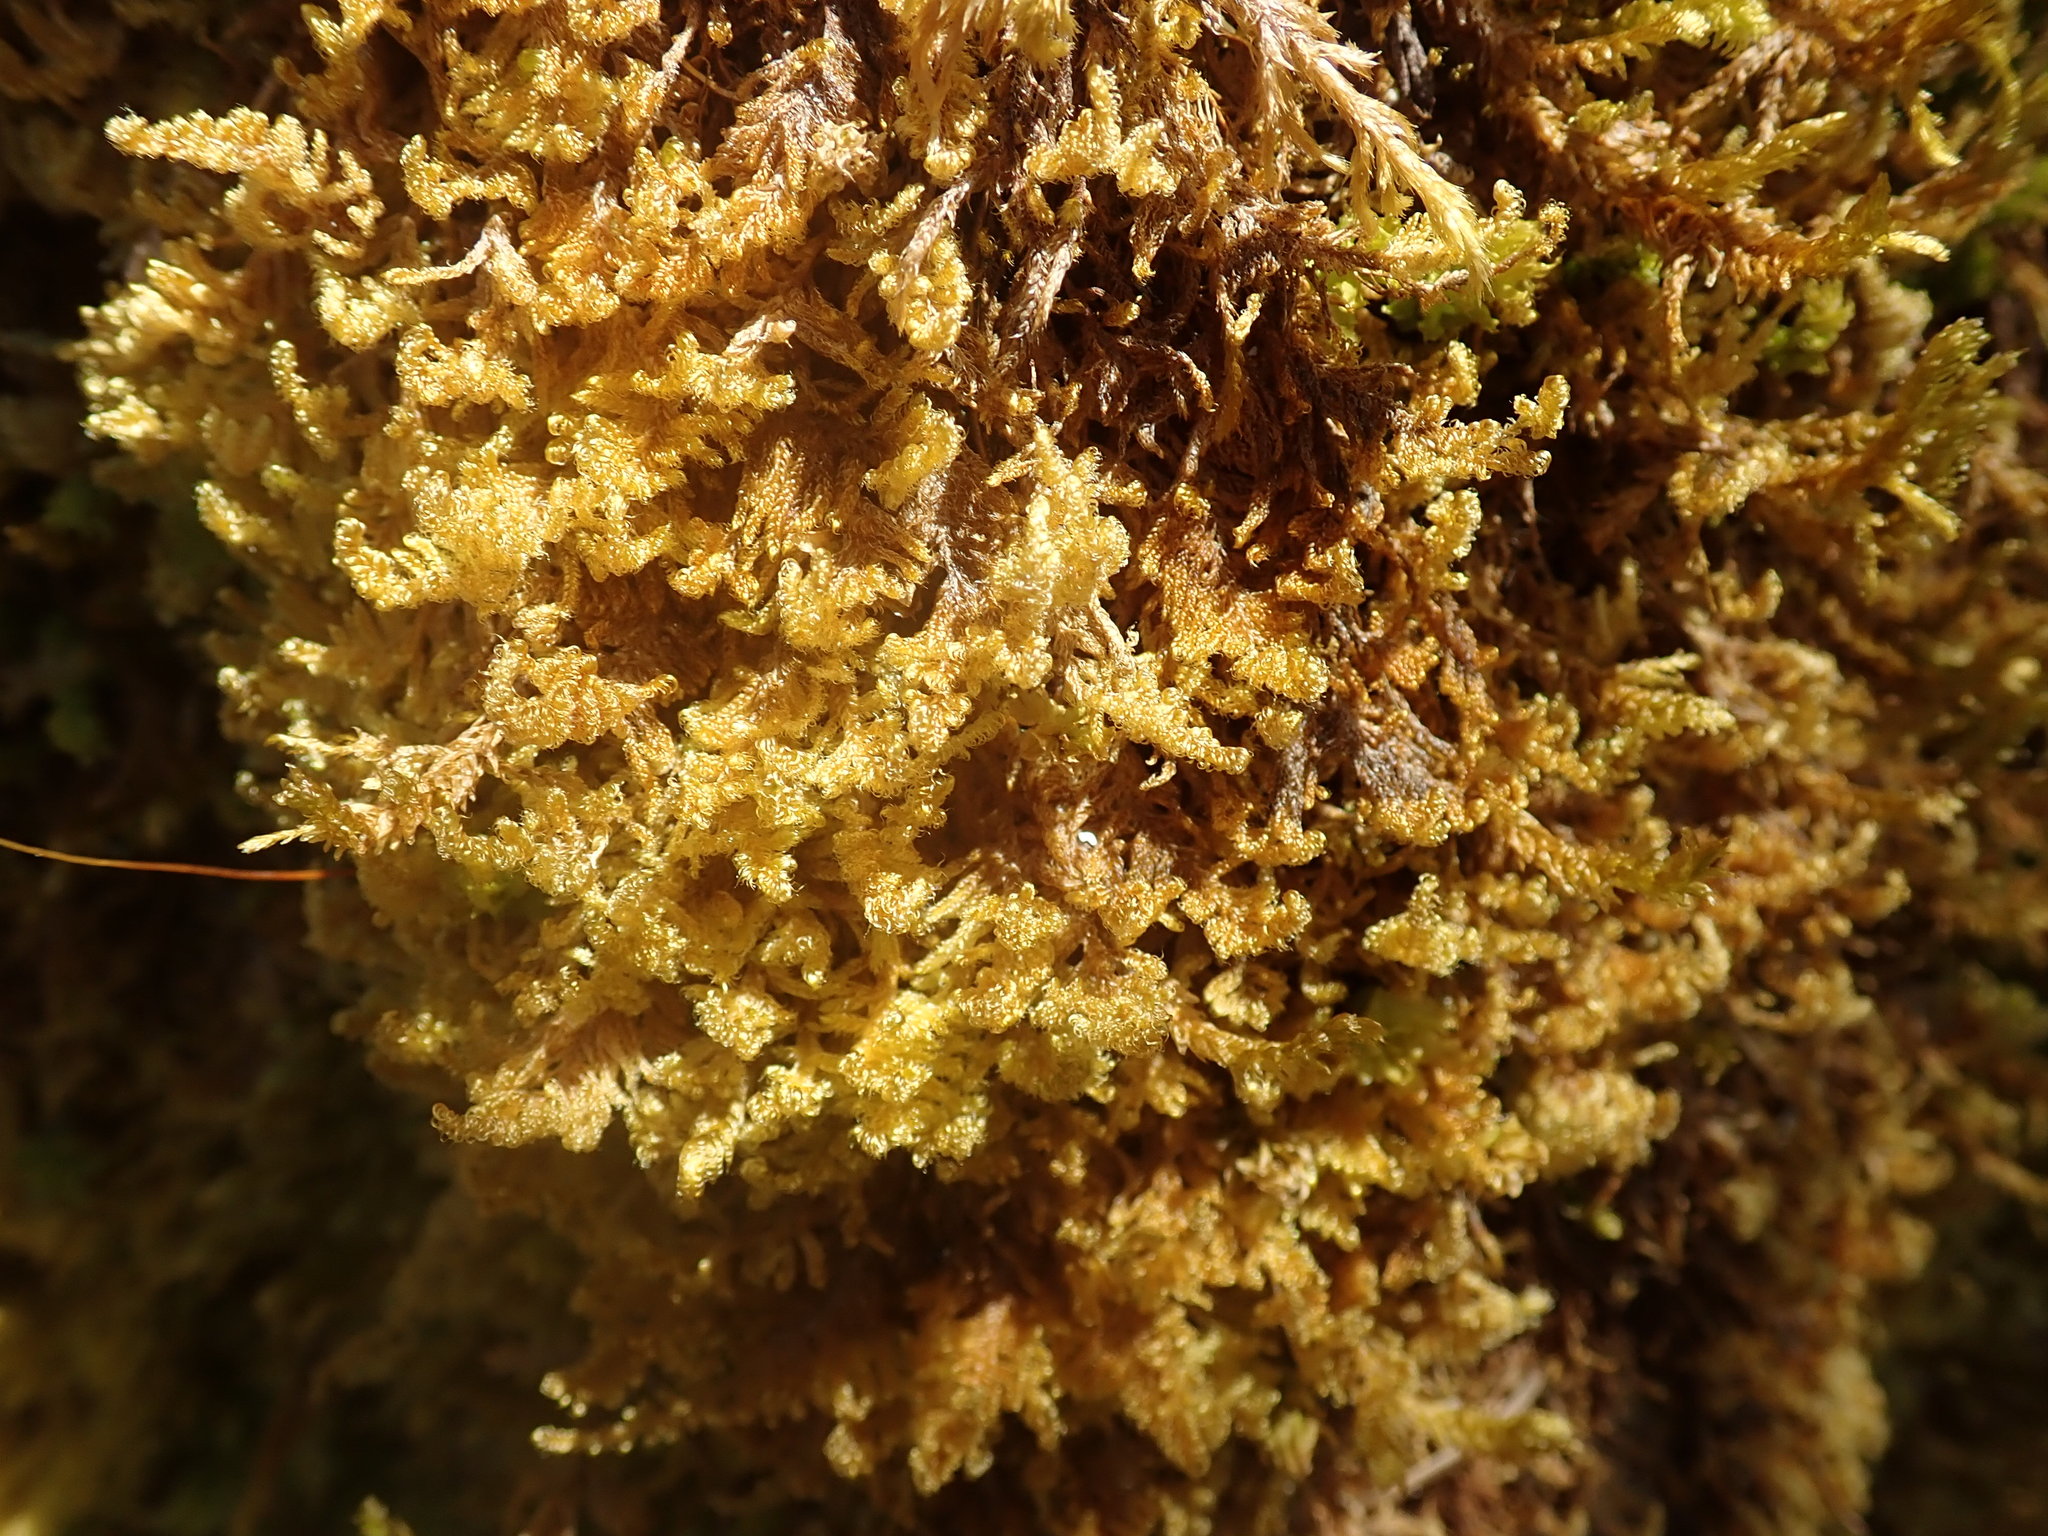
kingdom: Plantae
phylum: Bryophyta
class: Bryopsida
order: Hypnales
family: Stereodontaceae
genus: Stereodon
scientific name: Stereodon subimponens
